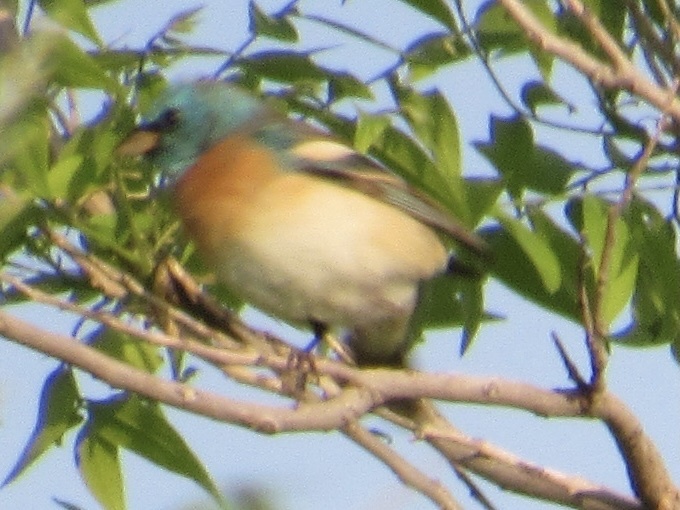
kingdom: Animalia
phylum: Chordata
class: Aves
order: Passeriformes
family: Cardinalidae
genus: Passerina
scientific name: Passerina amoena
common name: Lazuli bunting
